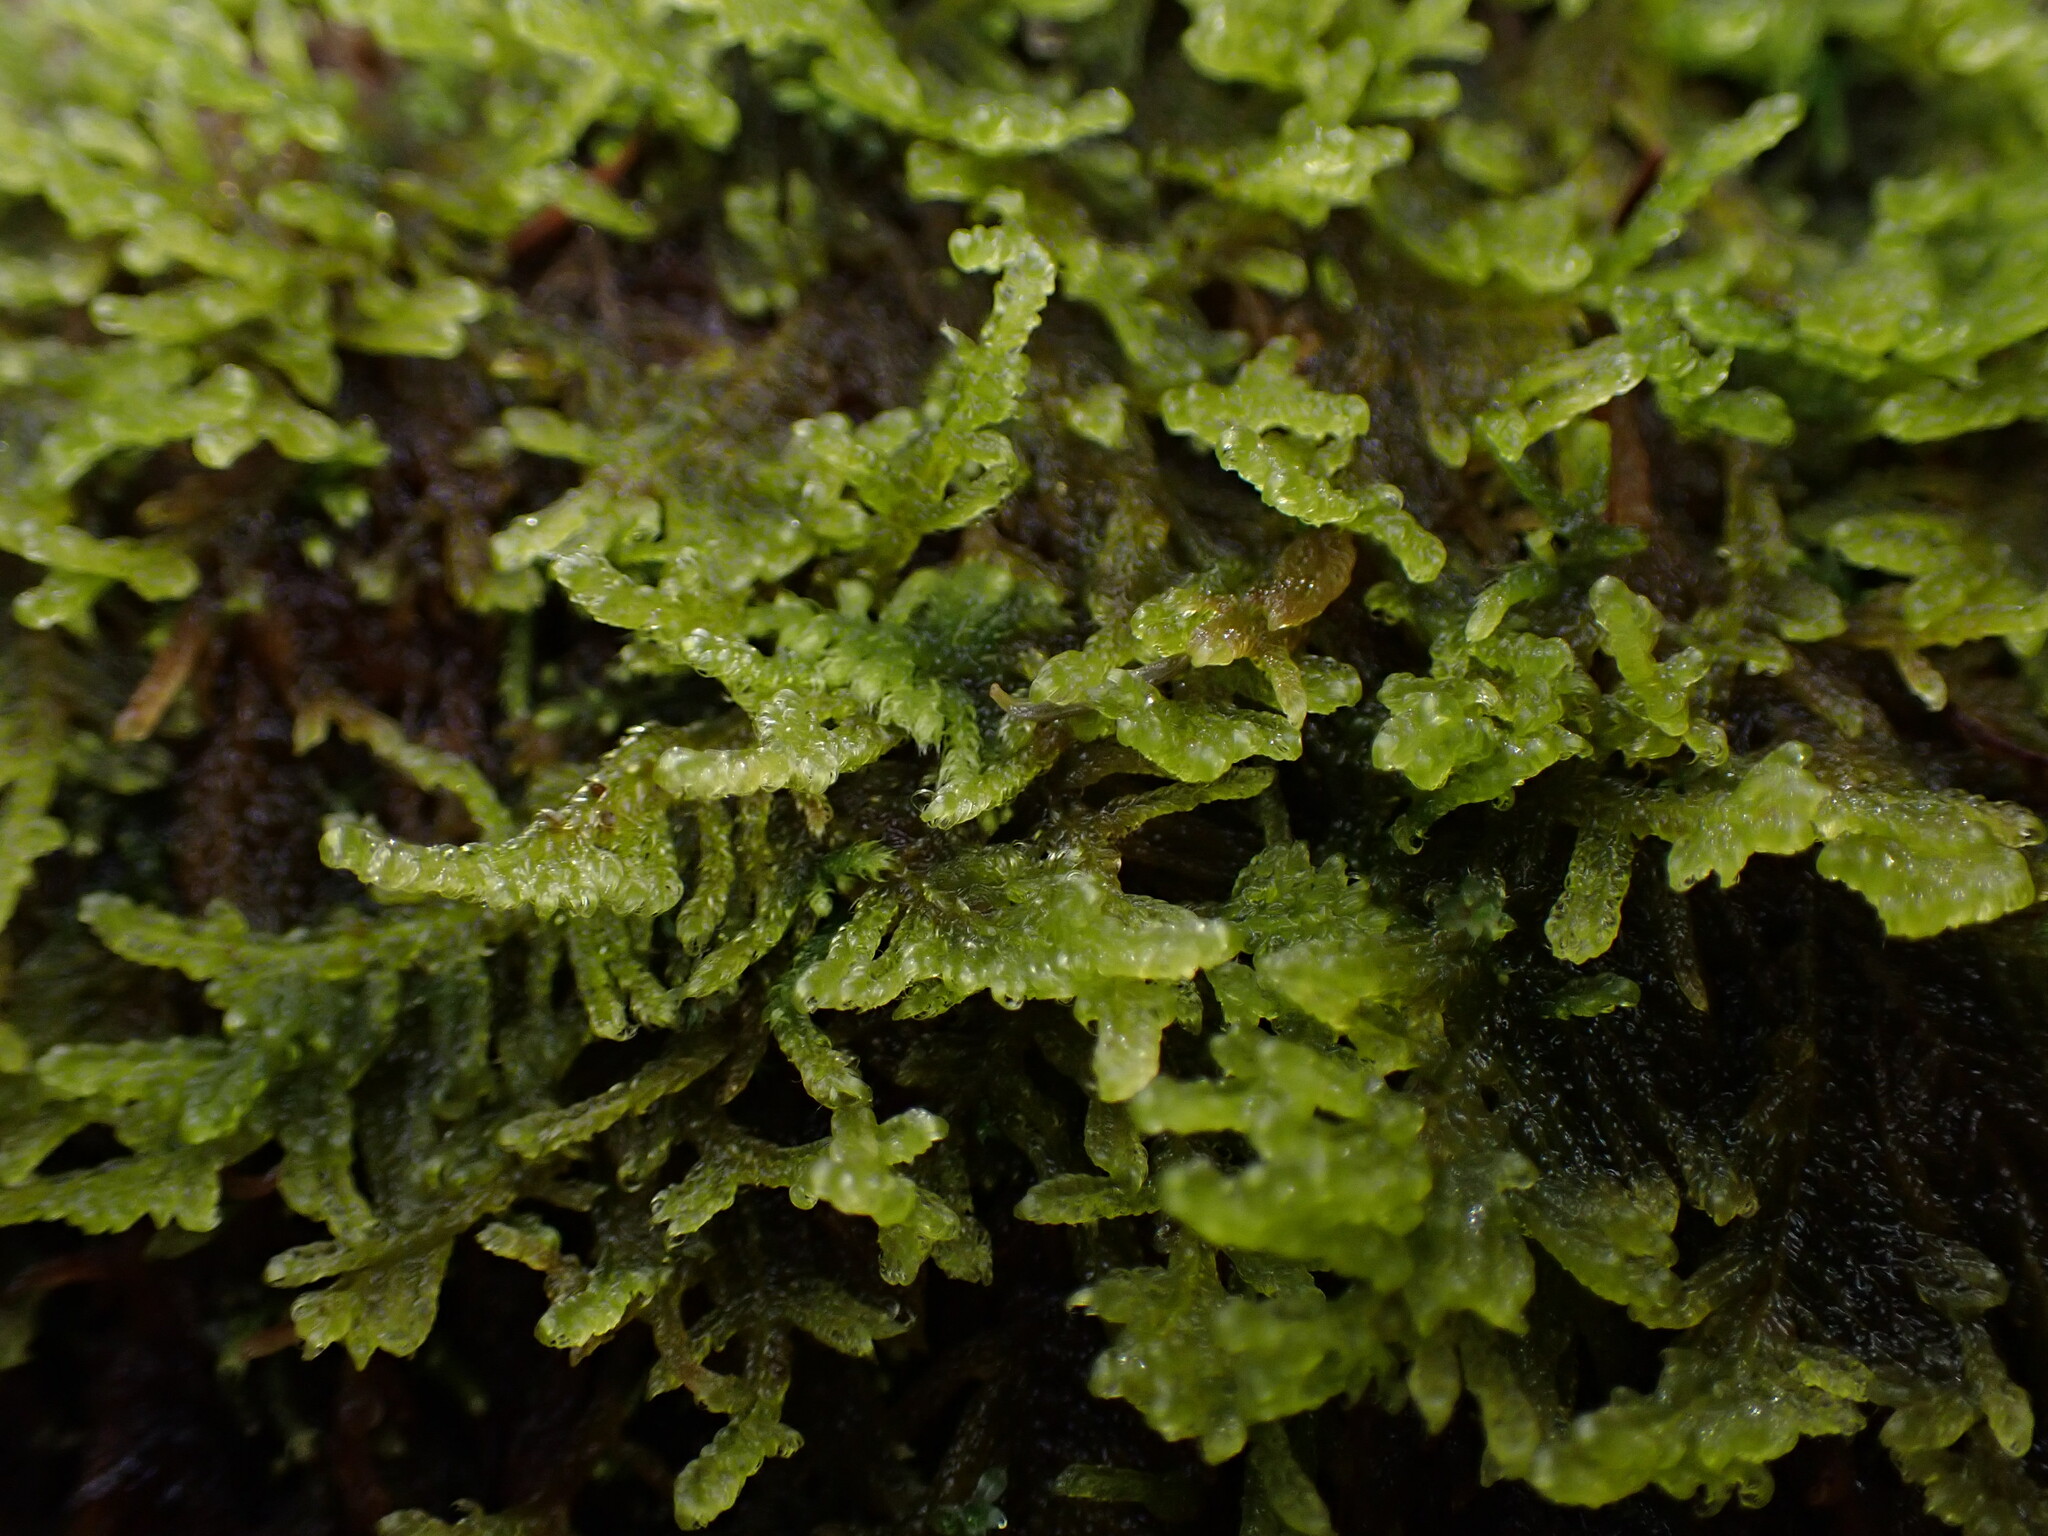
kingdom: Plantae
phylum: Bryophyta
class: Bryopsida
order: Hypnales
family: Stereodontaceae
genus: Stereodon
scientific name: Stereodon subimponens
